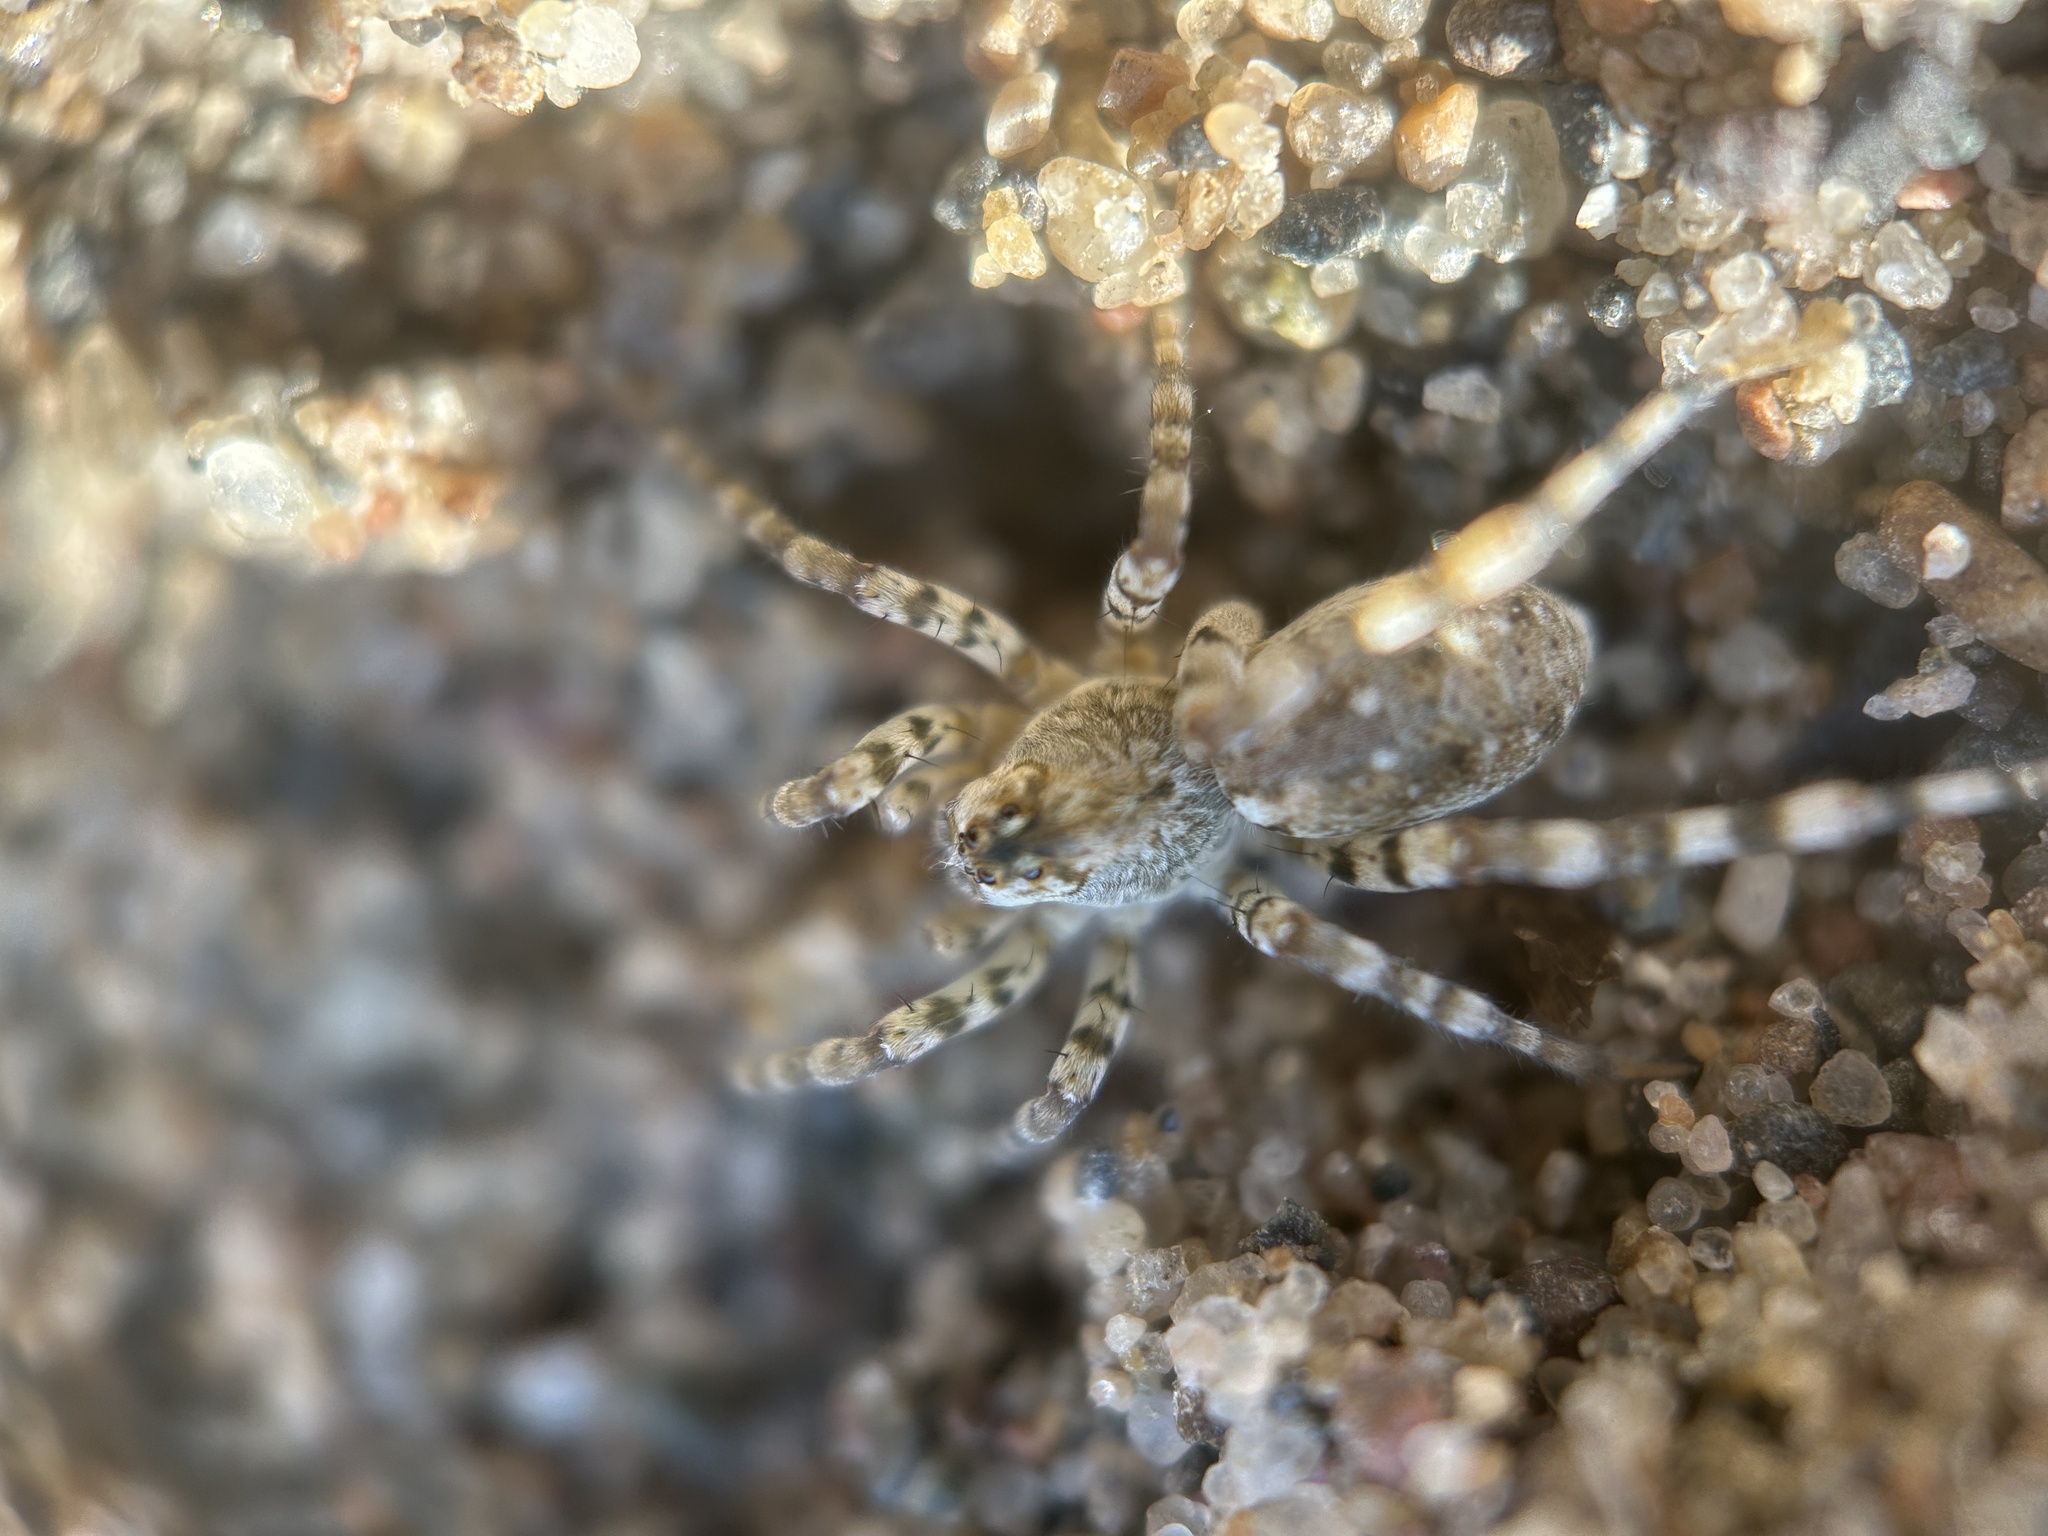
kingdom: Animalia
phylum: Arthropoda
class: Arachnida
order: Araneae
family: Lycosidae
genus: Arctosa
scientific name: Arctosa littoralis
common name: Wolf spiders
